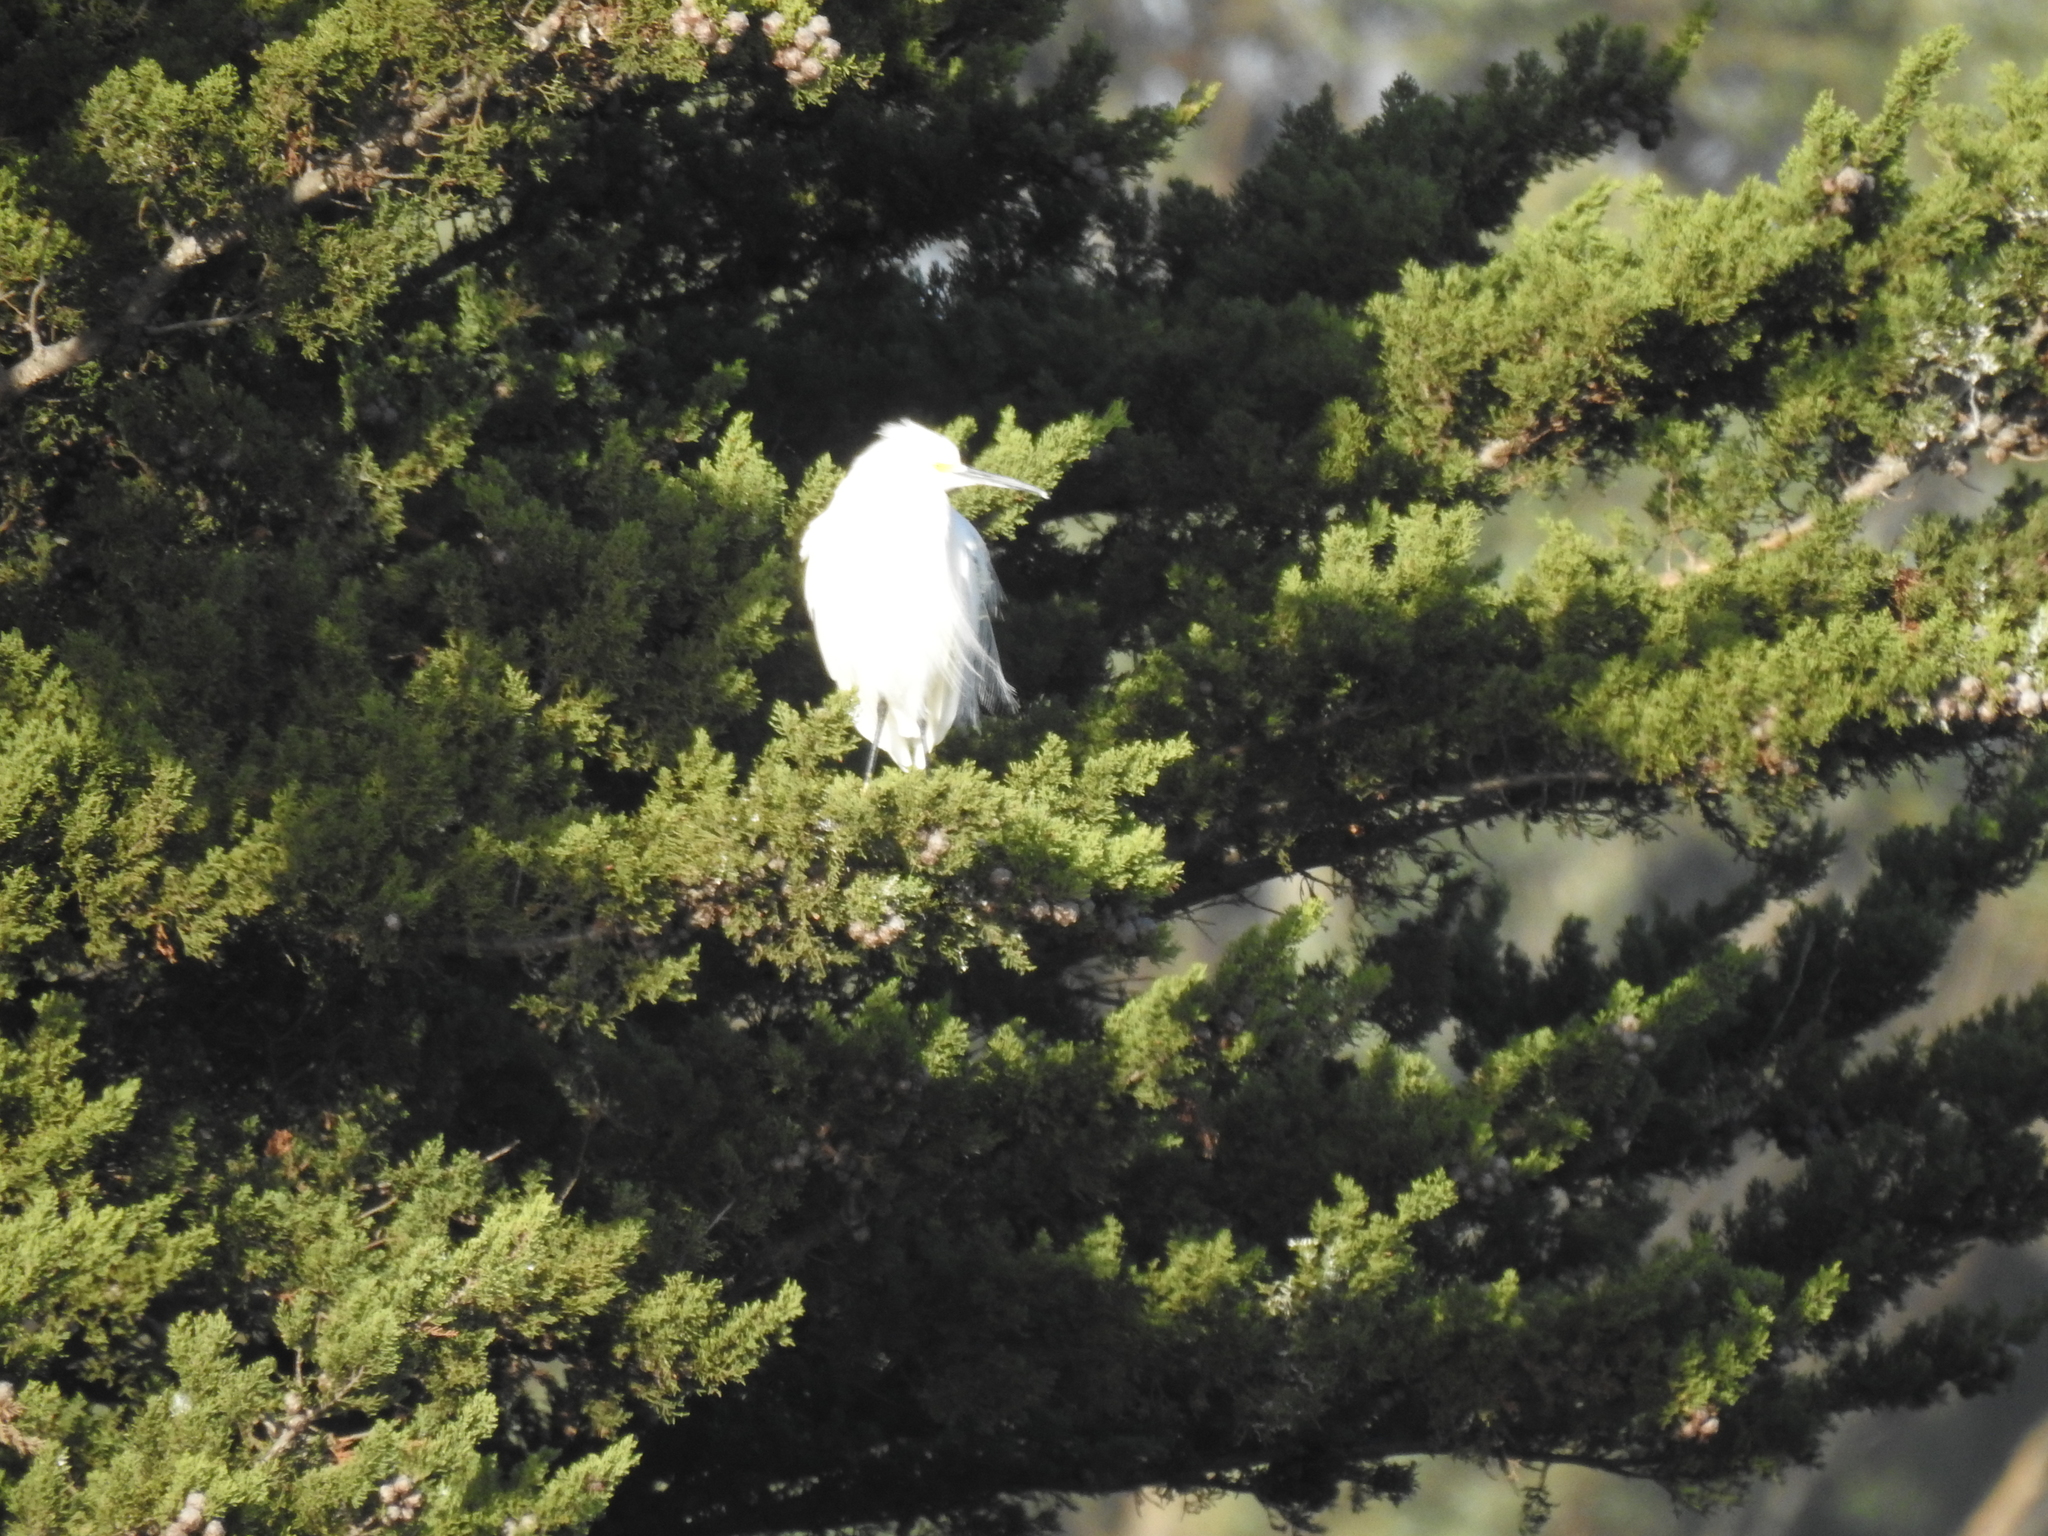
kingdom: Animalia
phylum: Chordata
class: Aves
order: Pelecaniformes
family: Ardeidae
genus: Egretta
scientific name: Egretta thula
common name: Snowy egret
